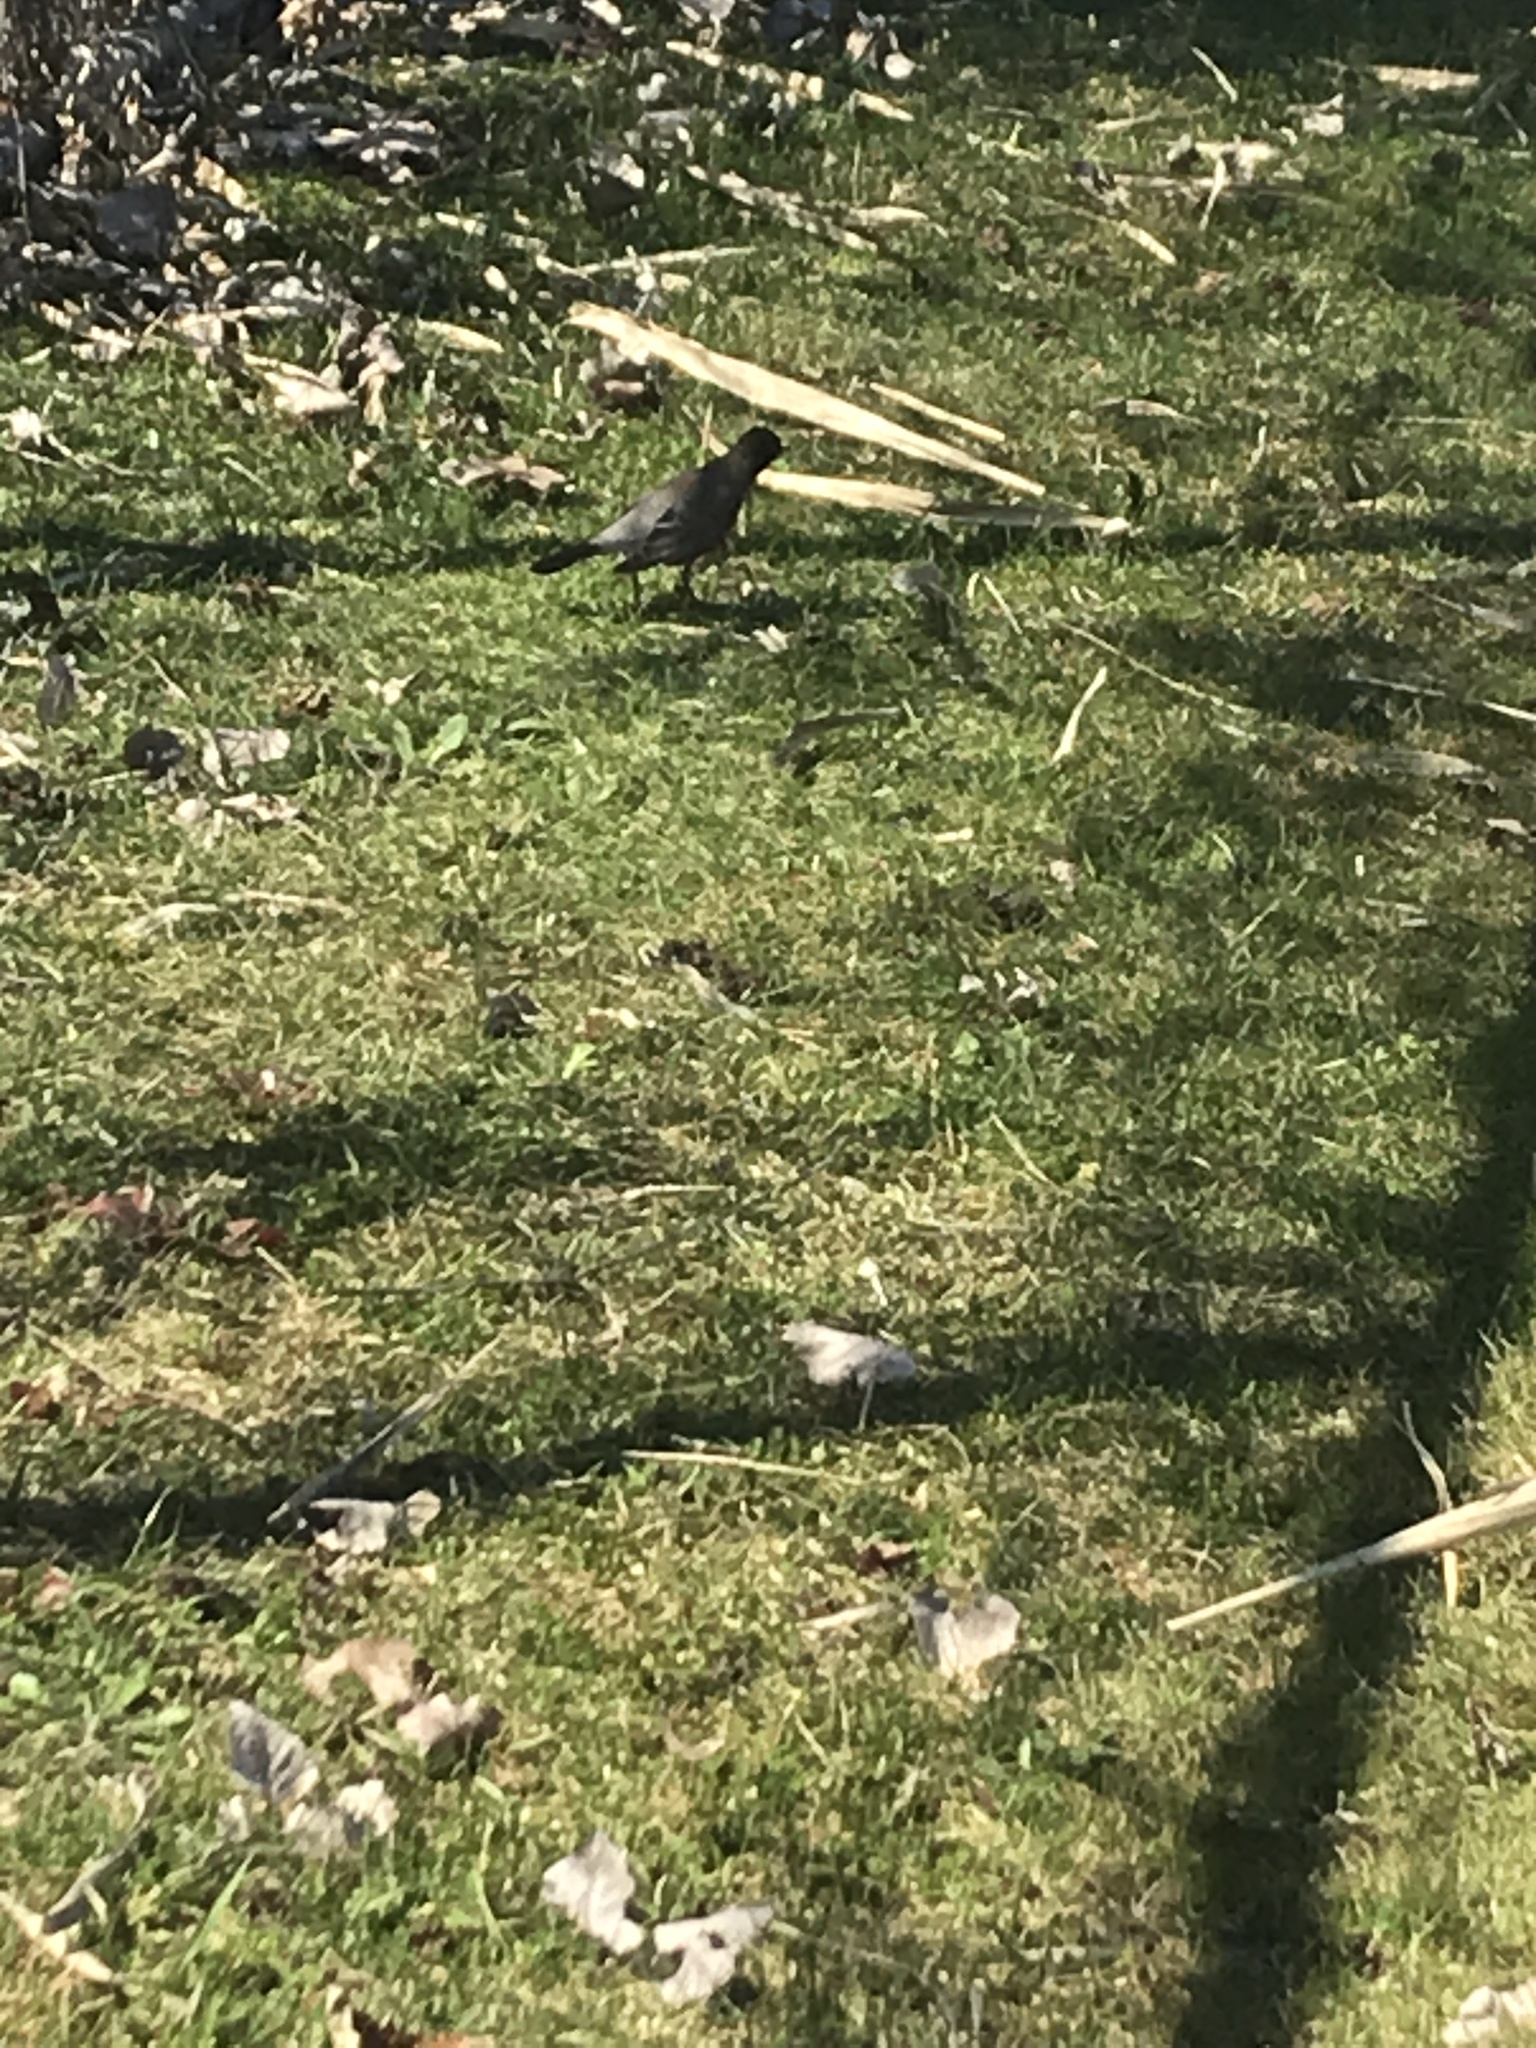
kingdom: Animalia
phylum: Chordata
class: Aves
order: Passeriformes
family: Turdidae
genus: Turdus
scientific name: Turdus migratorius
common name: American robin
